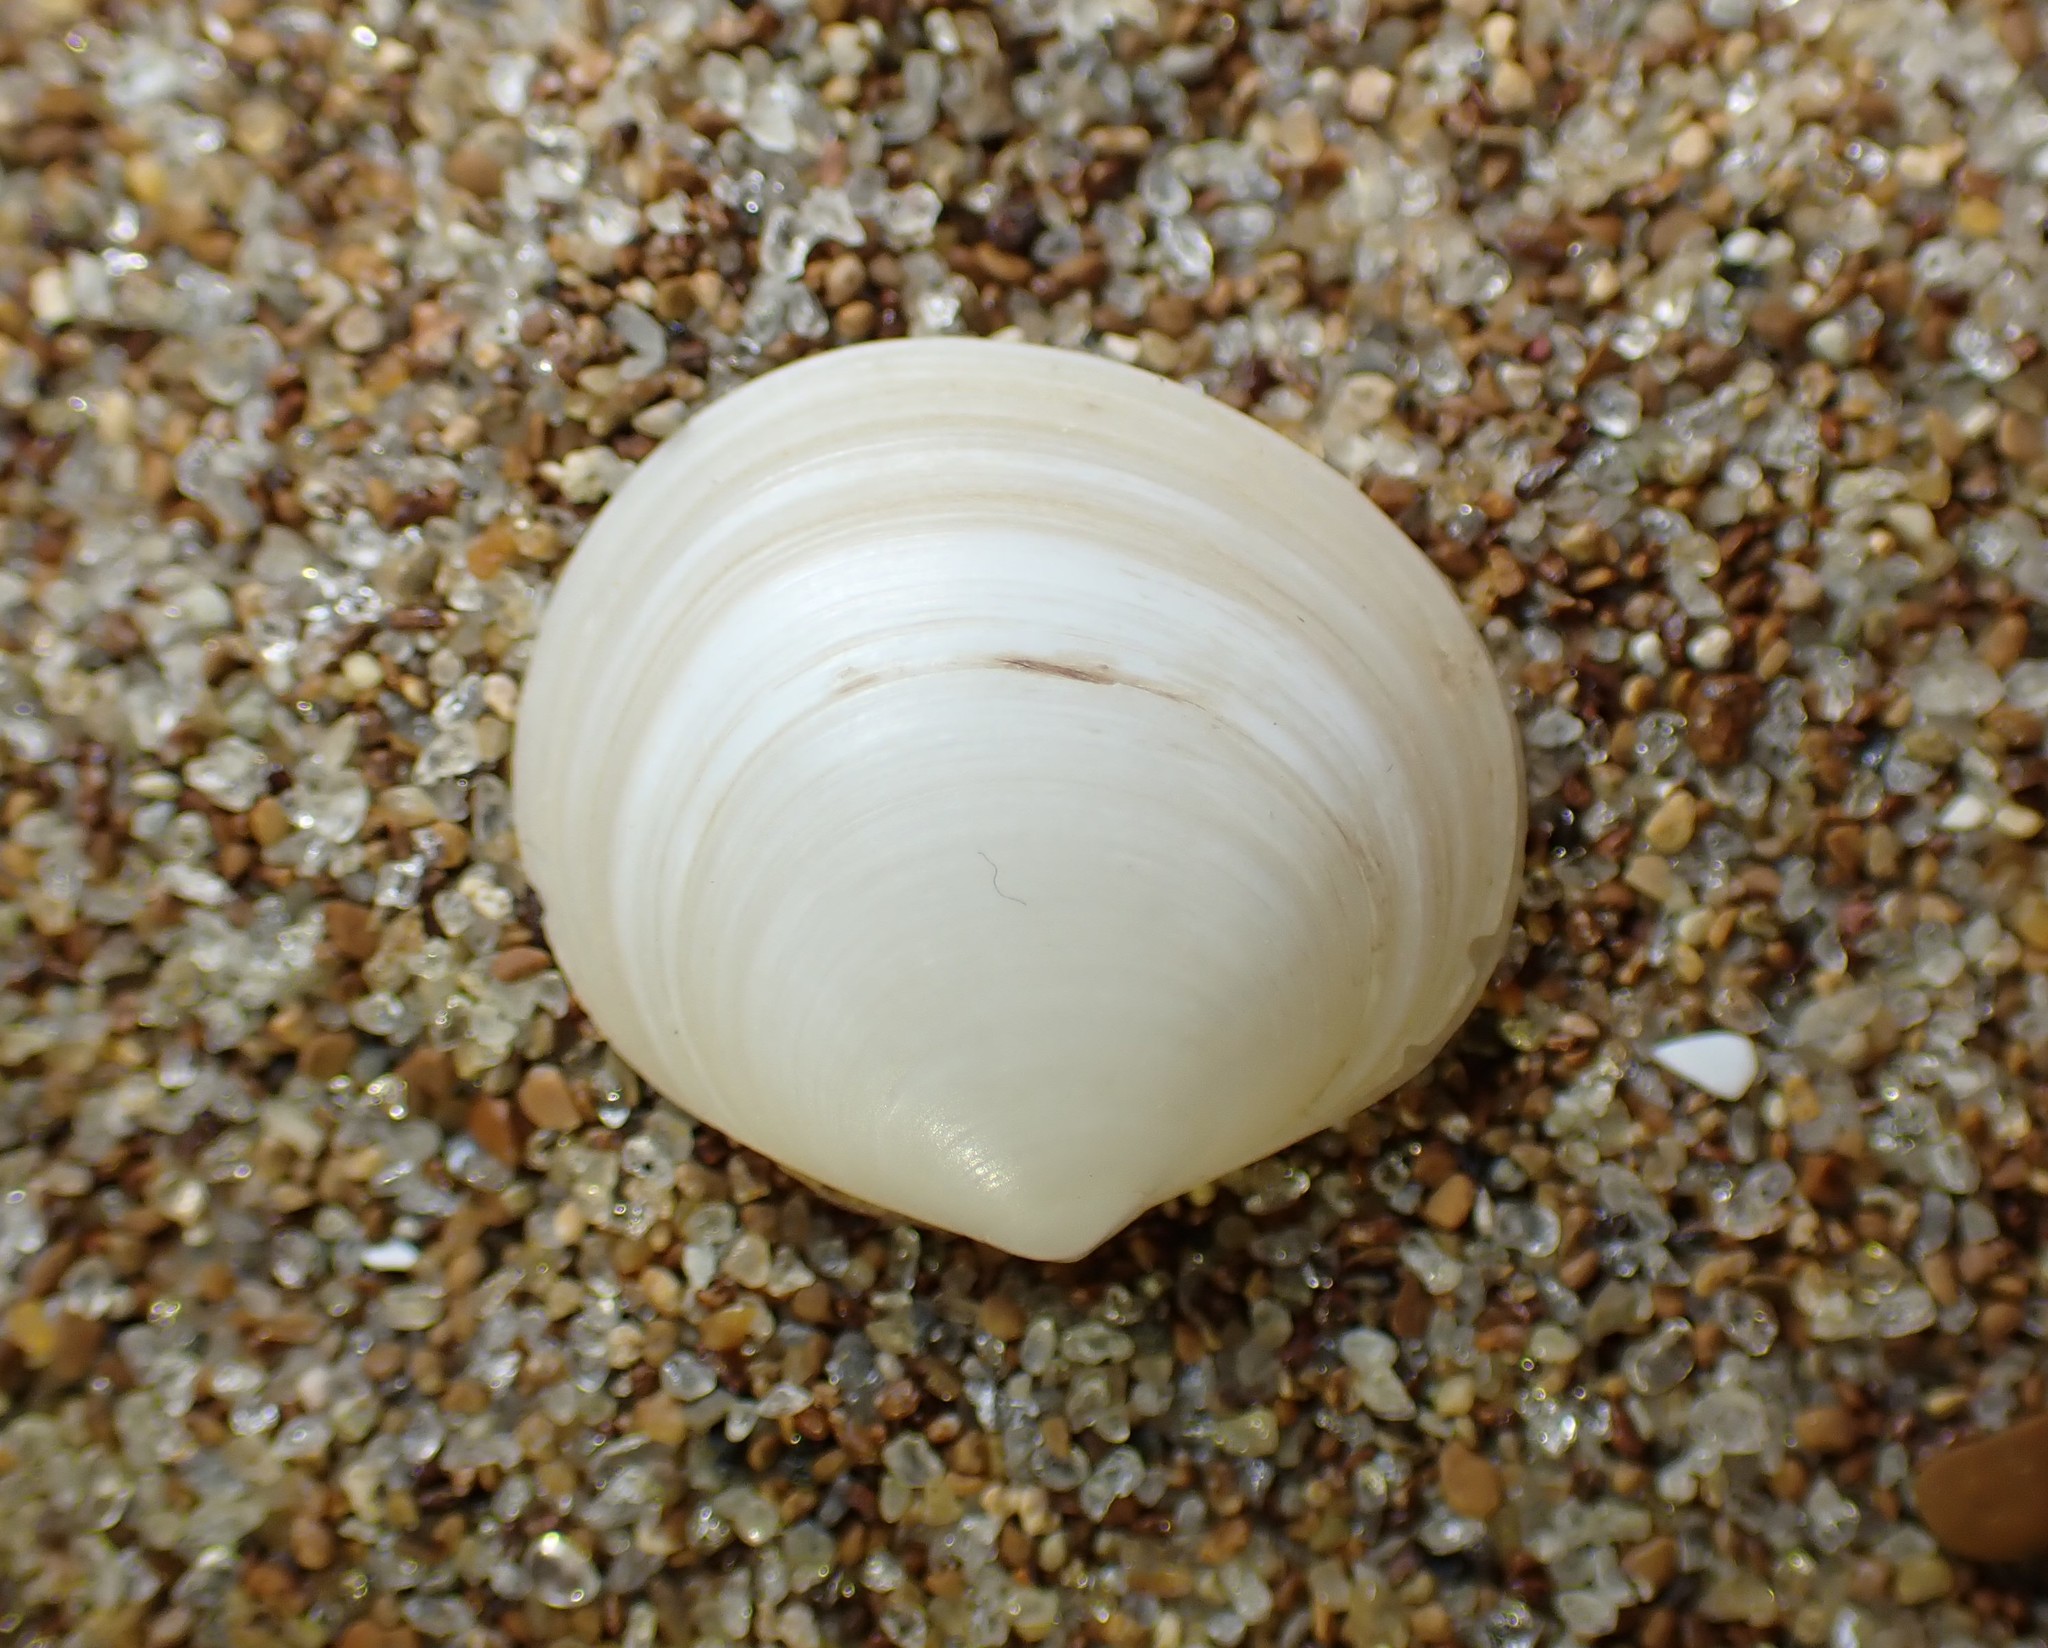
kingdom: Animalia
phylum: Mollusca
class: Bivalvia
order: Venerida
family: Ungulinidae
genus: Zemysia
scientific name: Zemysia zelandica
